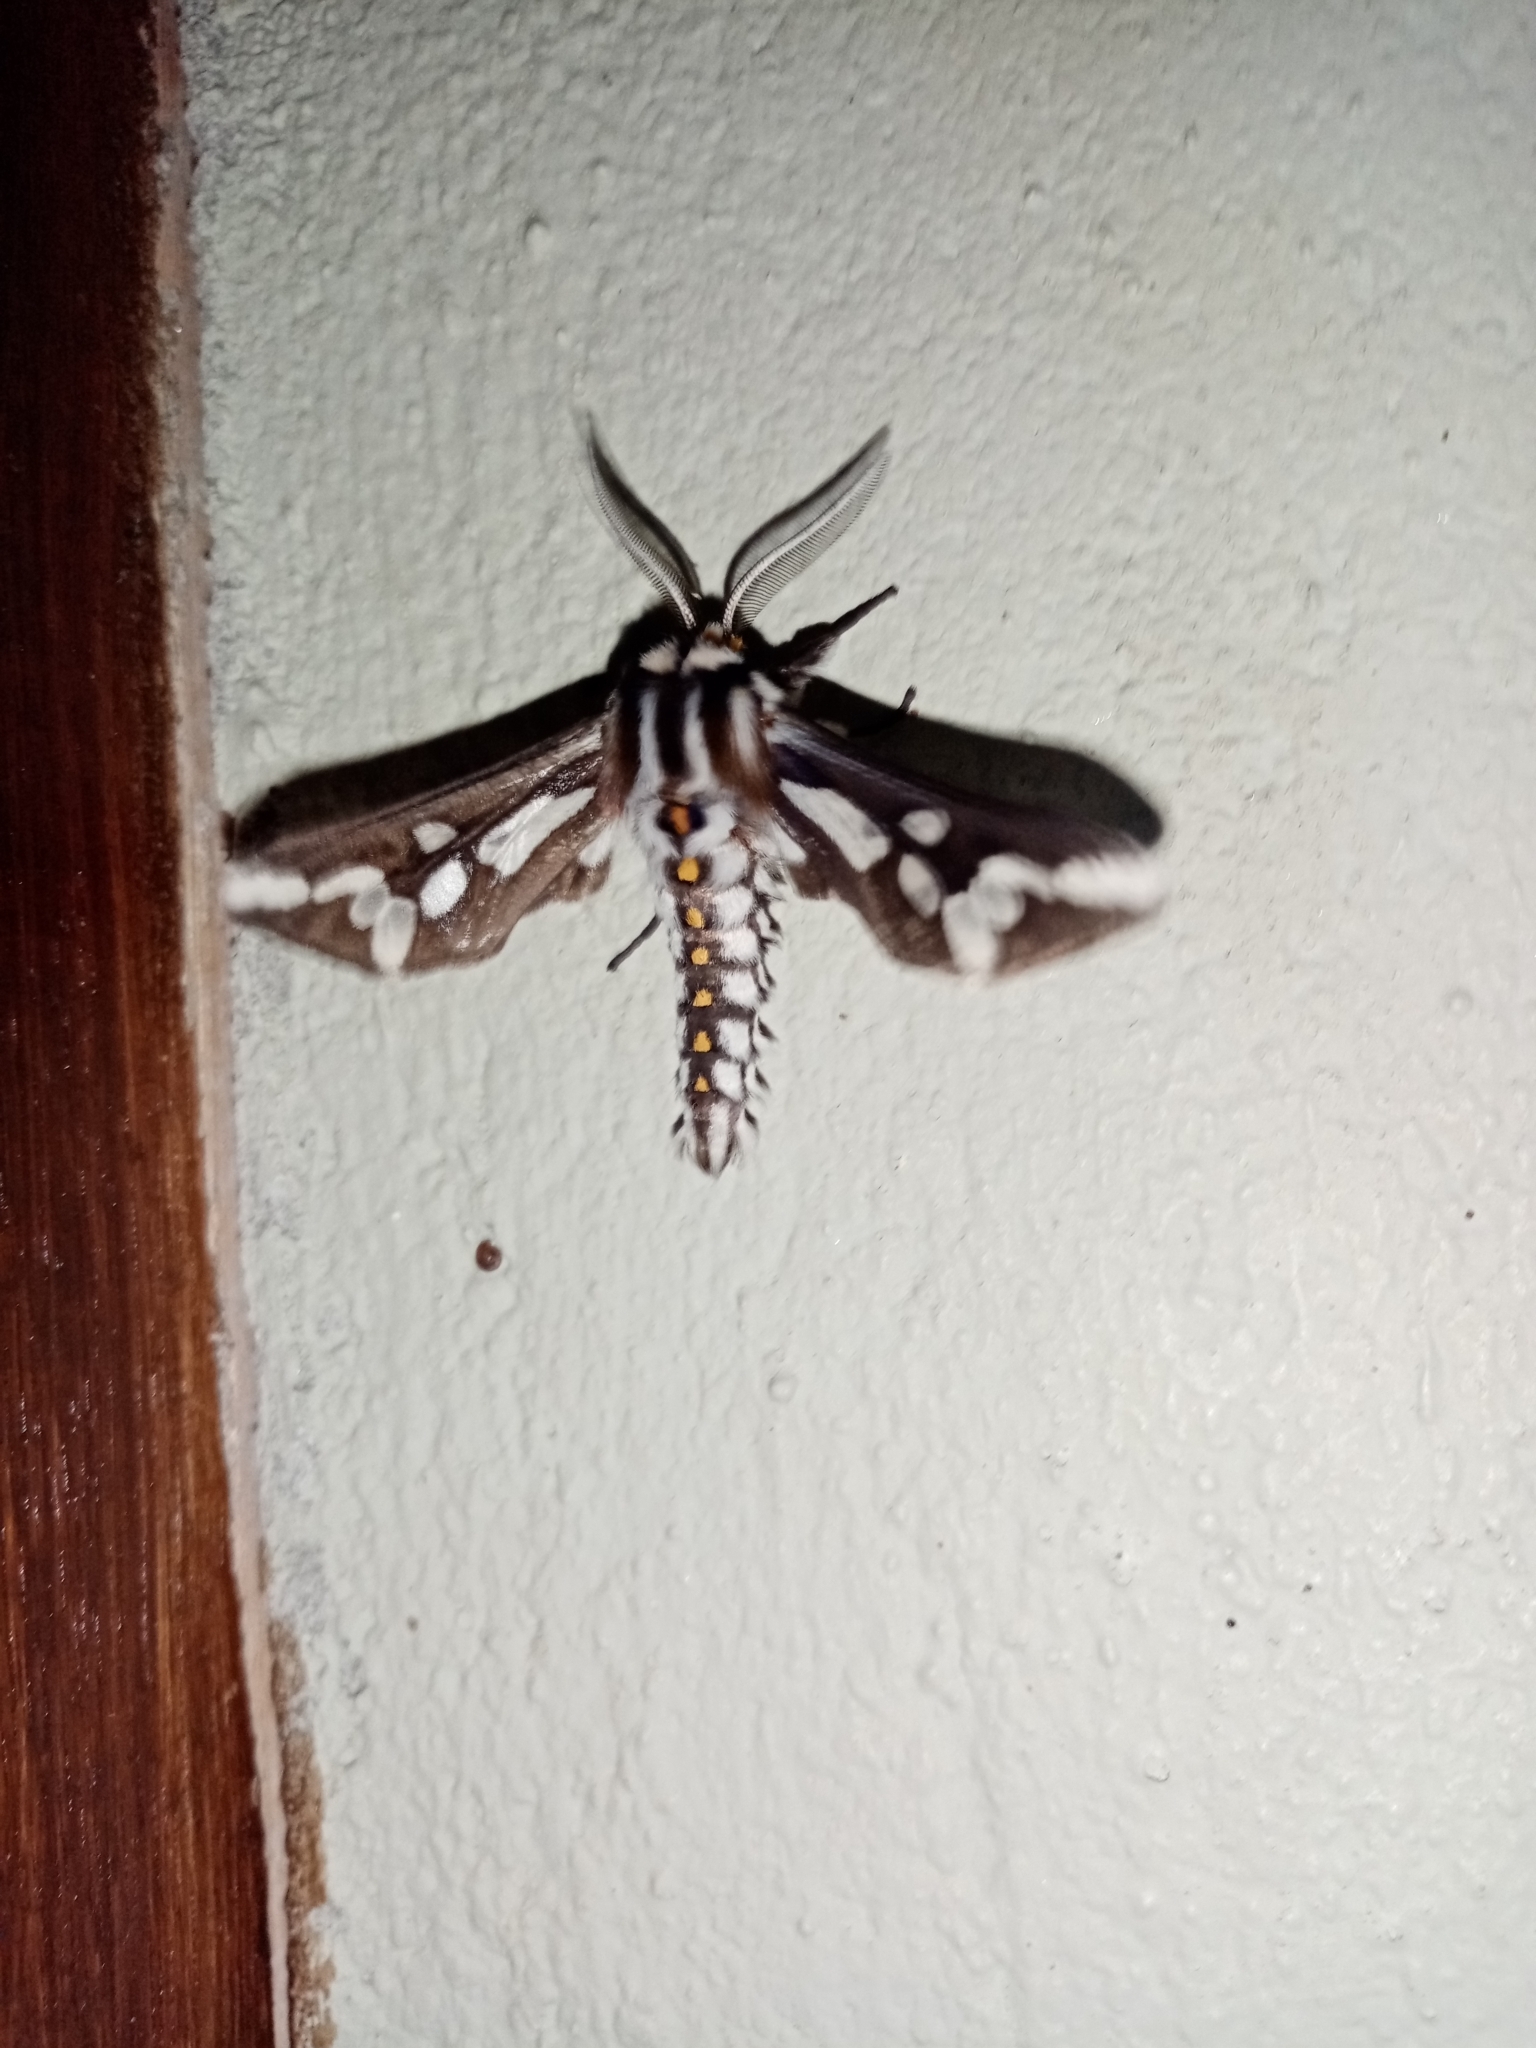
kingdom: Animalia
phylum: Arthropoda
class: Insecta
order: Lepidoptera
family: Erebidae
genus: Thyretes
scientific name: Thyretes hippotes
